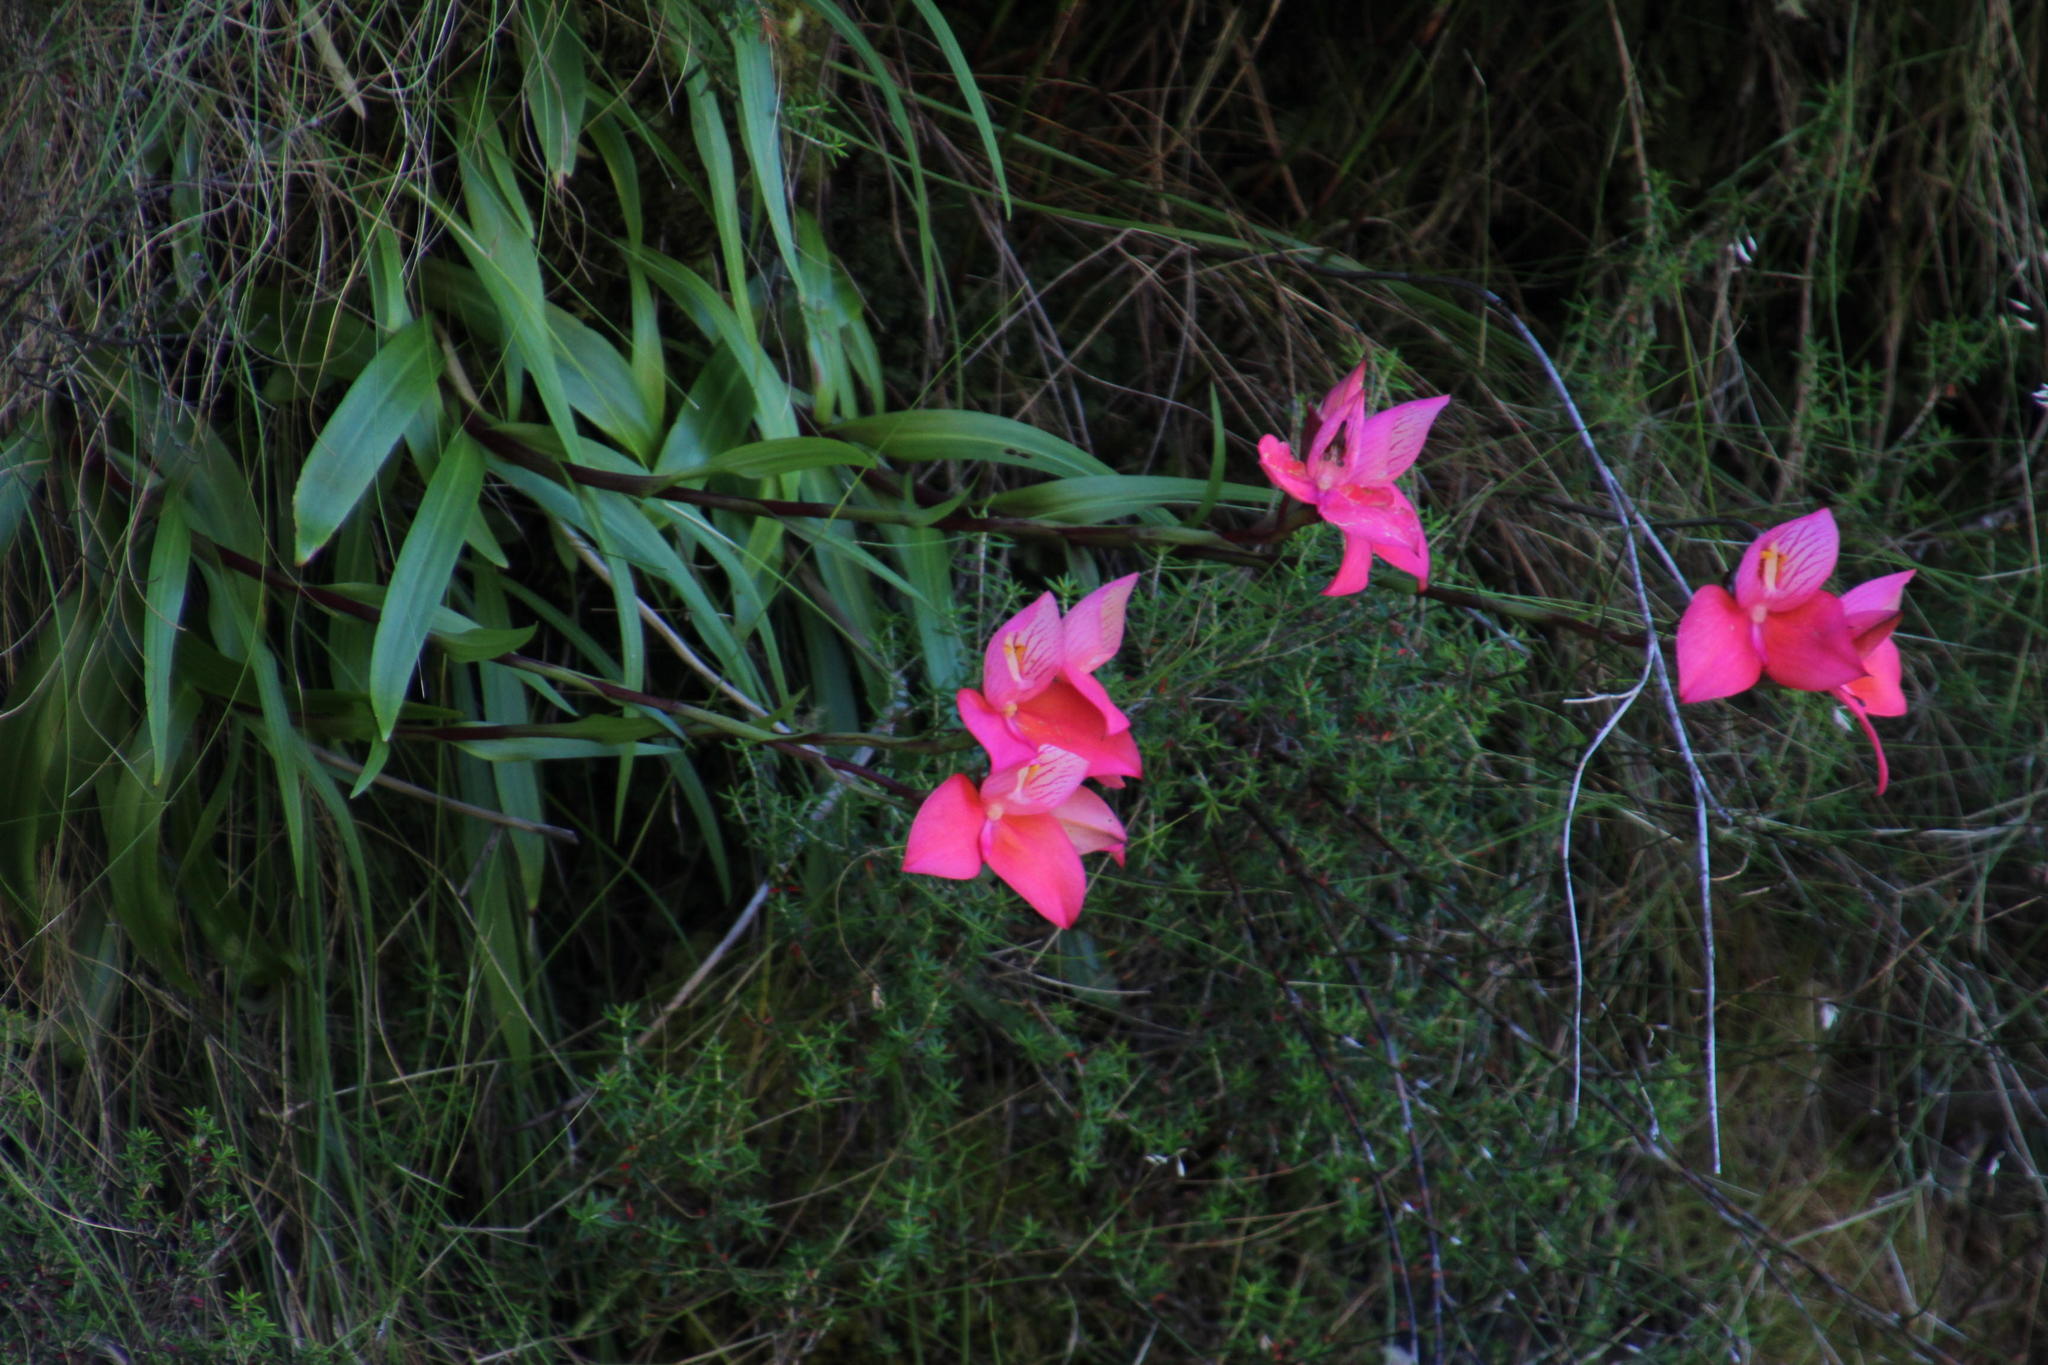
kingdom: Plantae
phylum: Tracheophyta
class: Liliopsida
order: Asparagales
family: Orchidaceae
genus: Disa
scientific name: Disa uniflora
